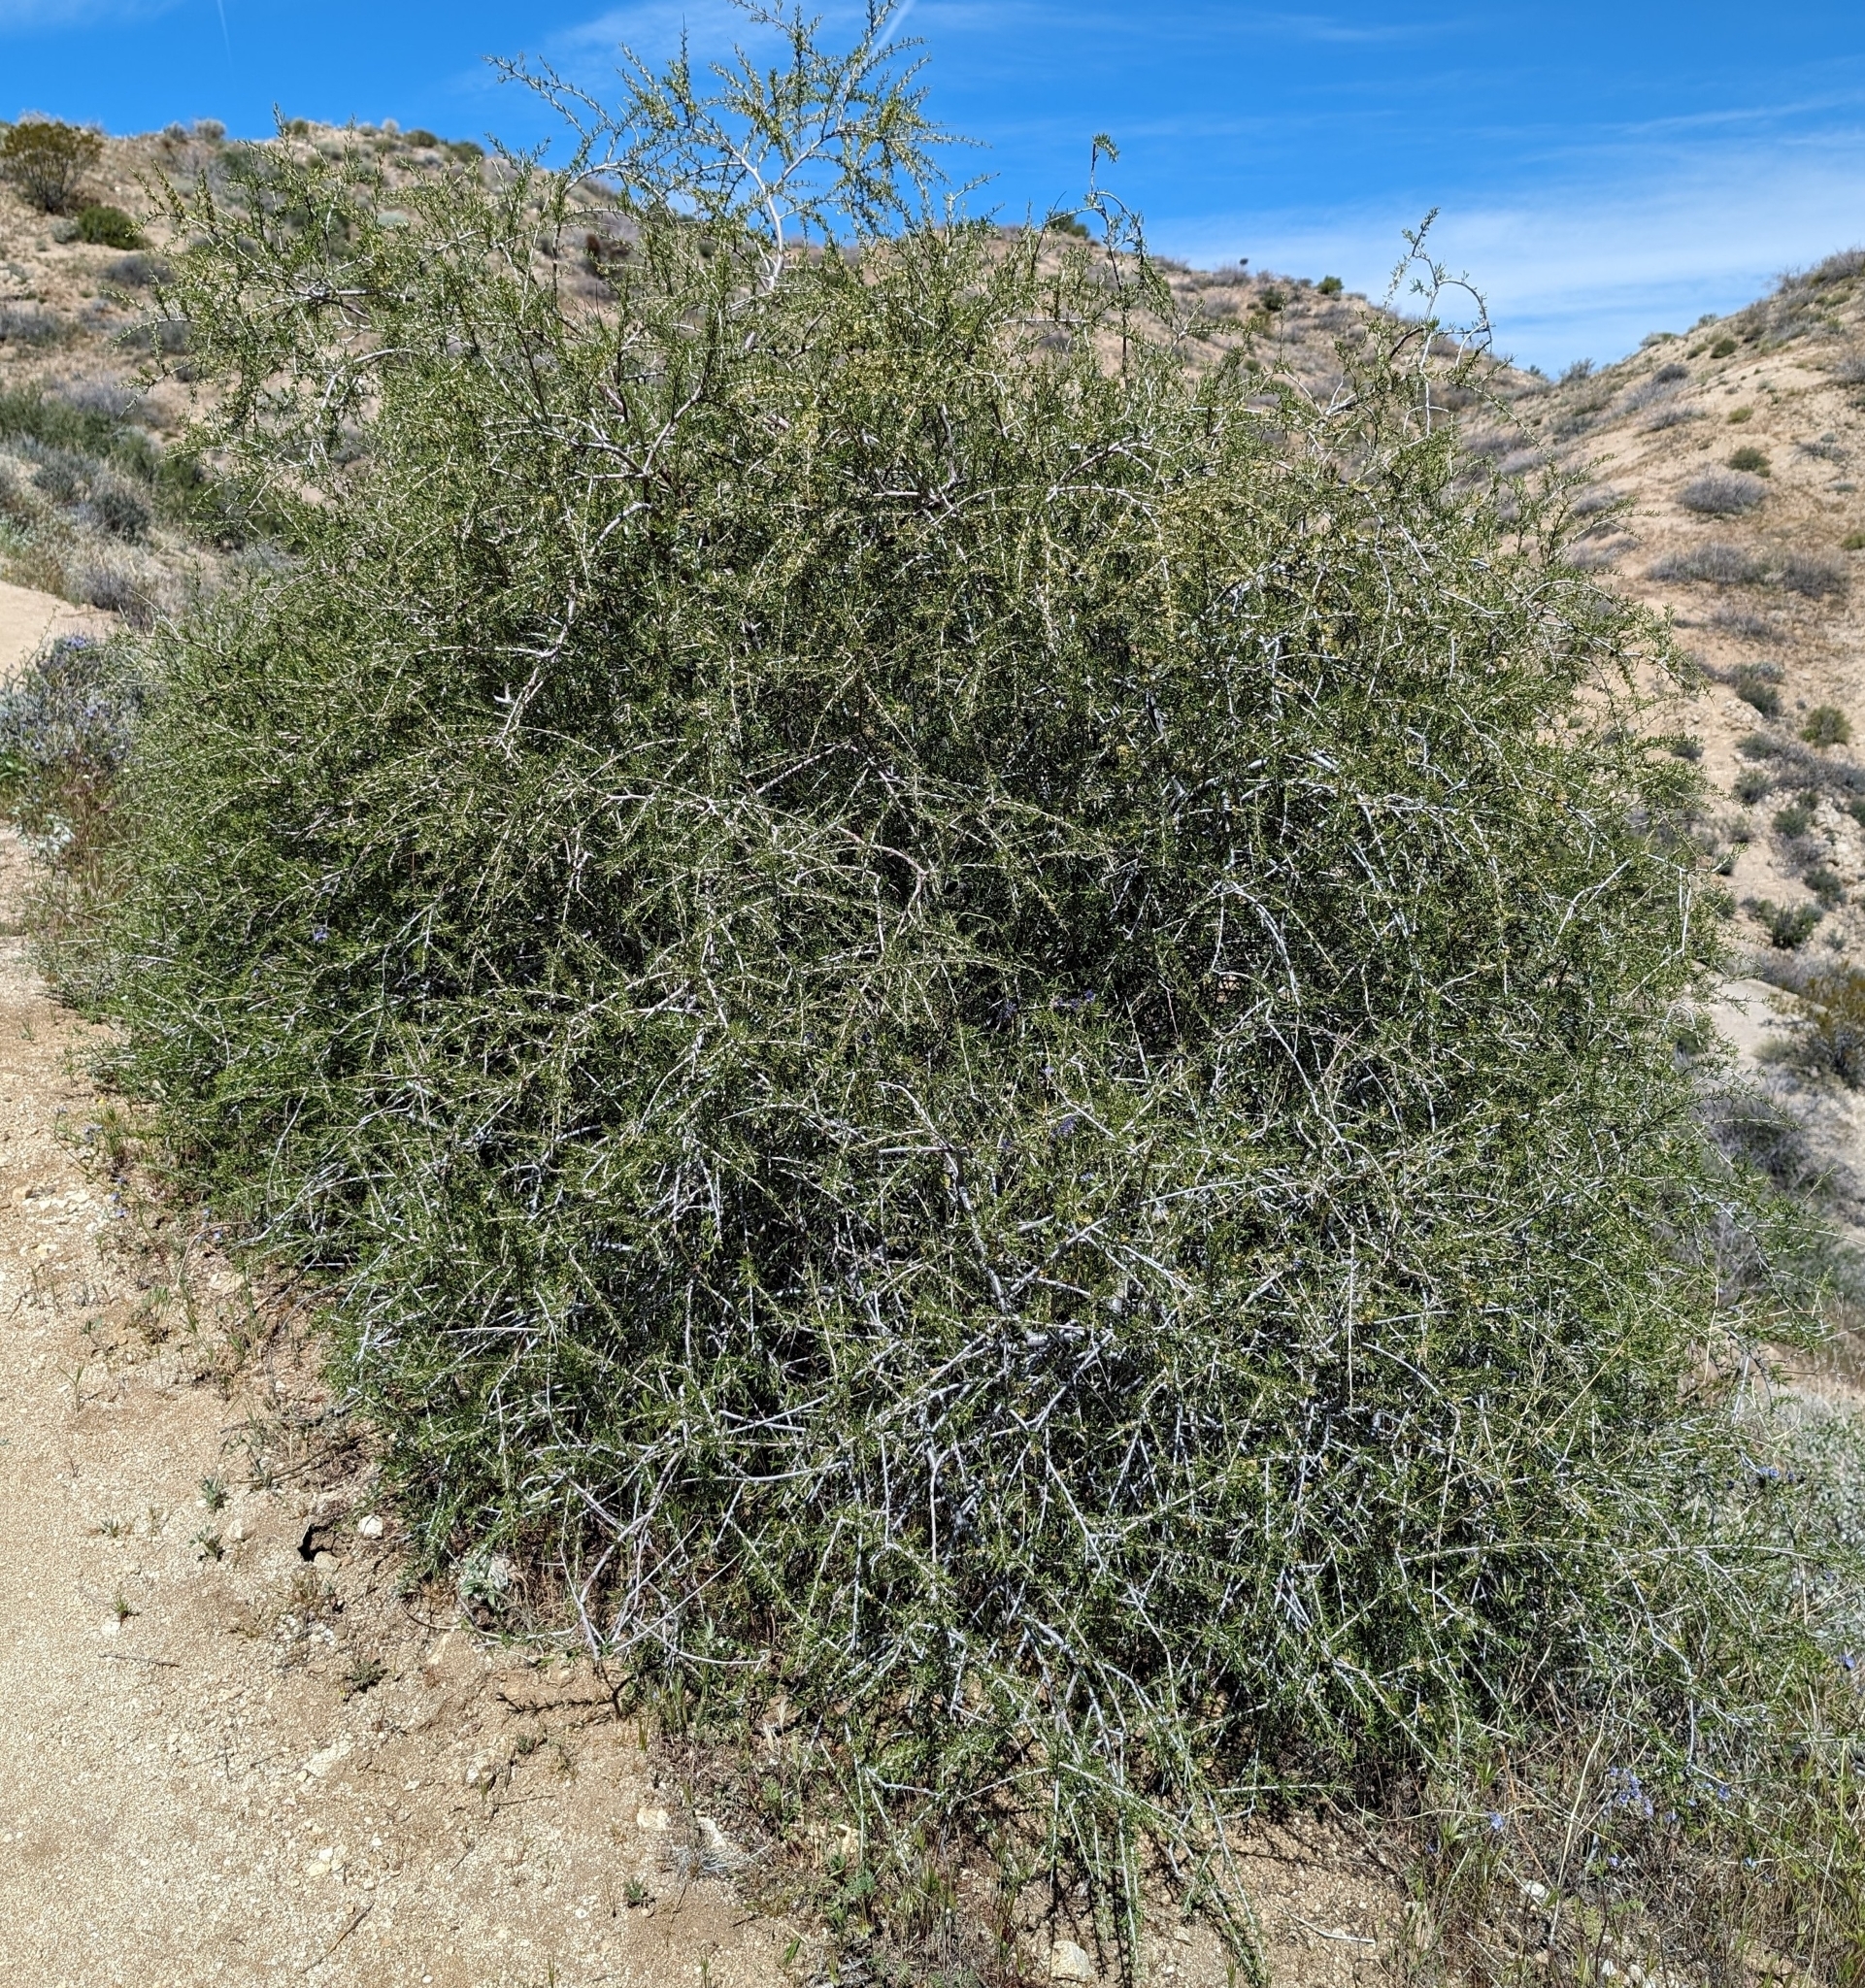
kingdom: Plantae
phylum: Tracheophyta
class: Magnoliopsida
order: Rosales
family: Rosaceae
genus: Prunus
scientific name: Prunus fasciculata
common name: Desert almond
